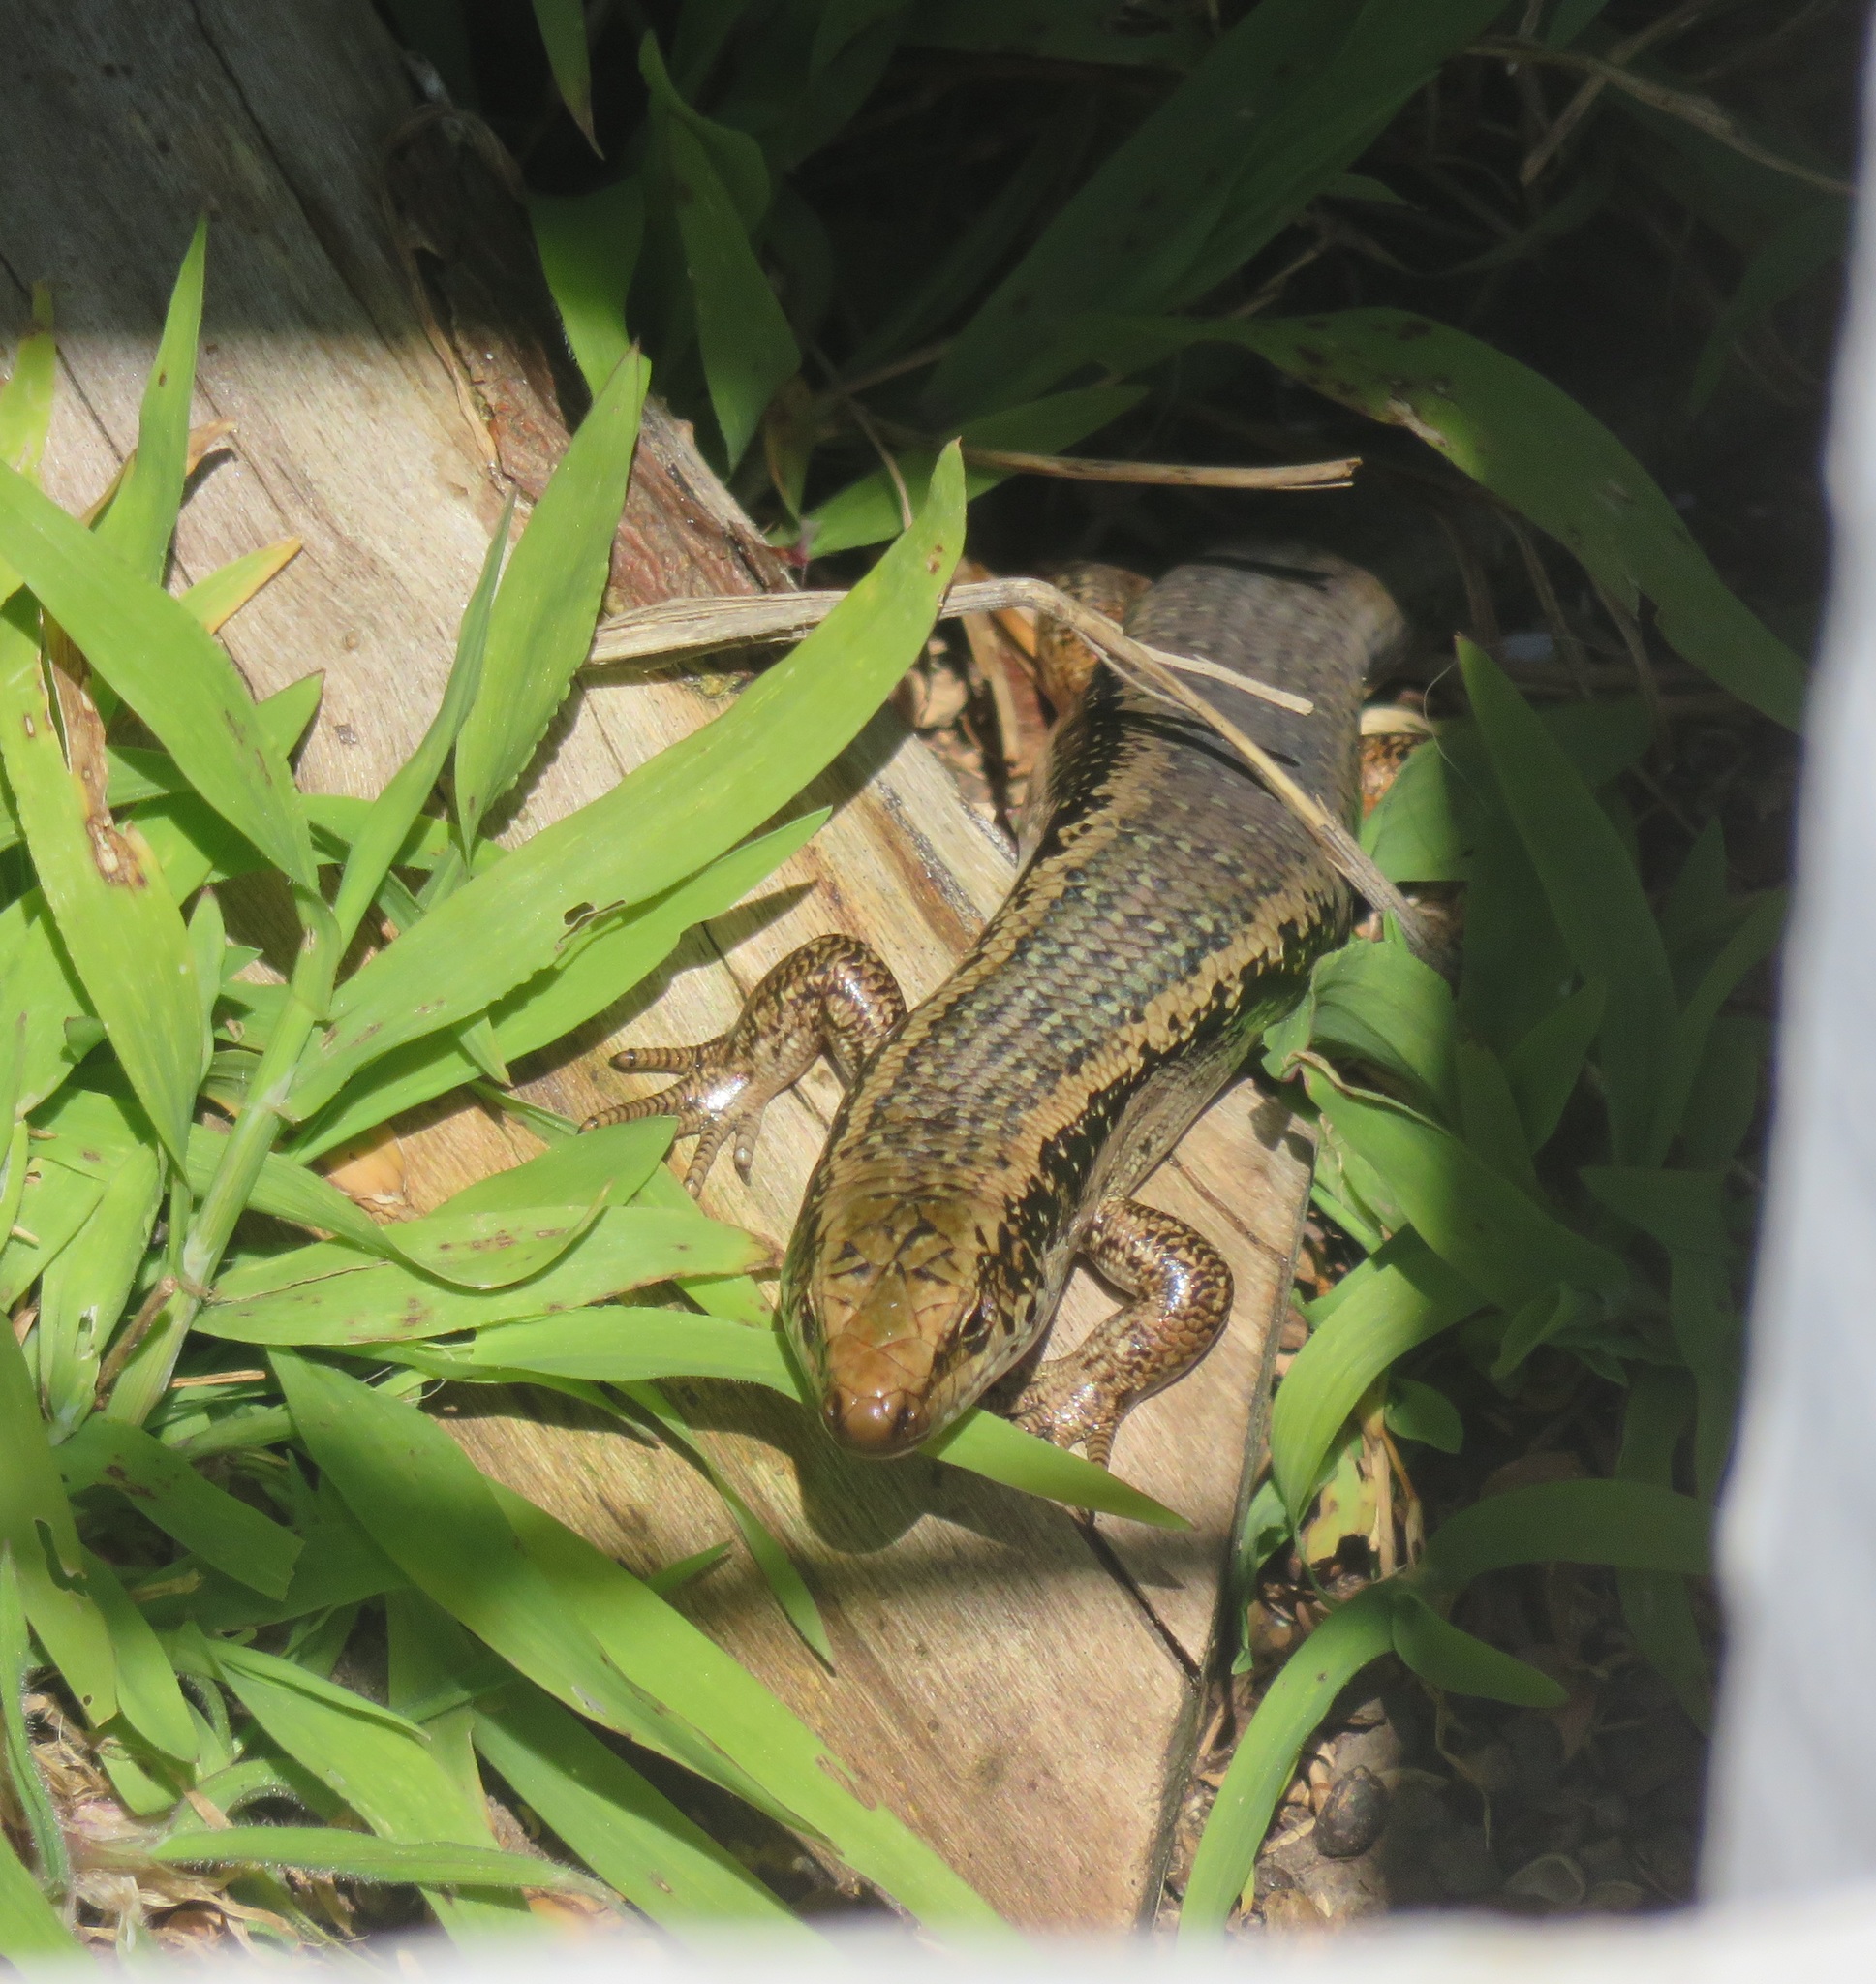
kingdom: Animalia
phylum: Chordata
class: Squamata
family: Scincidae
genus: Oligosoma
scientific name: Oligosoma kokowai
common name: Northern spotted skink
